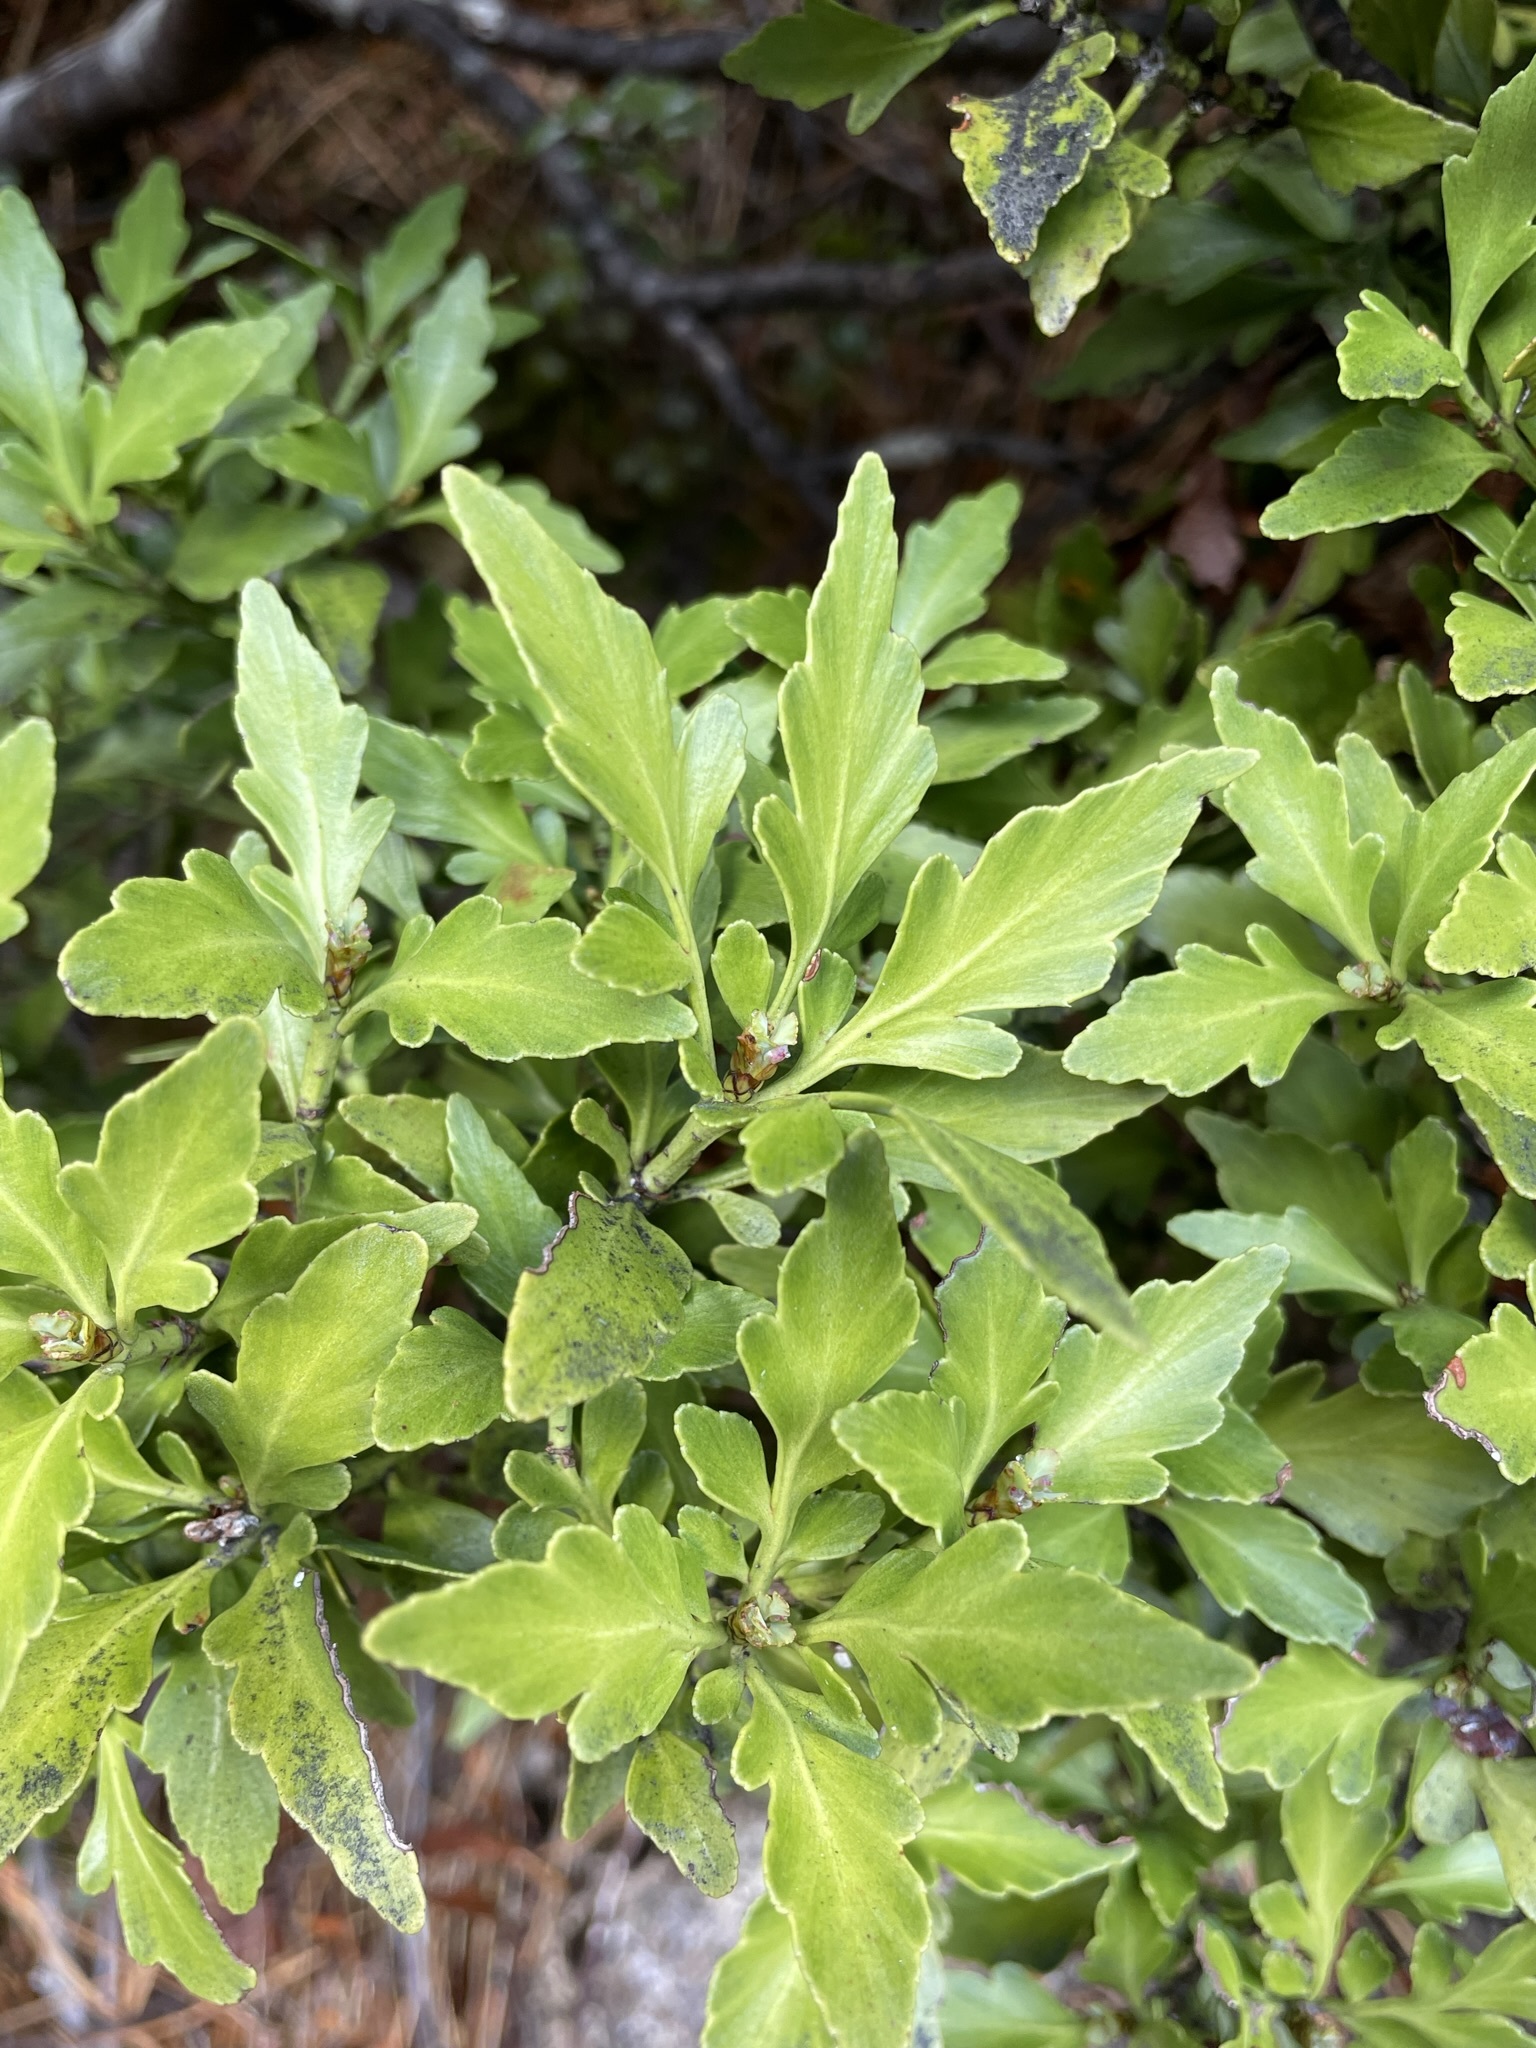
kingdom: Plantae
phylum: Tracheophyta
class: Pinopsida
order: Pinales
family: Phyllocladaceae
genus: Phyllocladus
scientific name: Phyllocladus trichomanoides
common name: Celery pine
